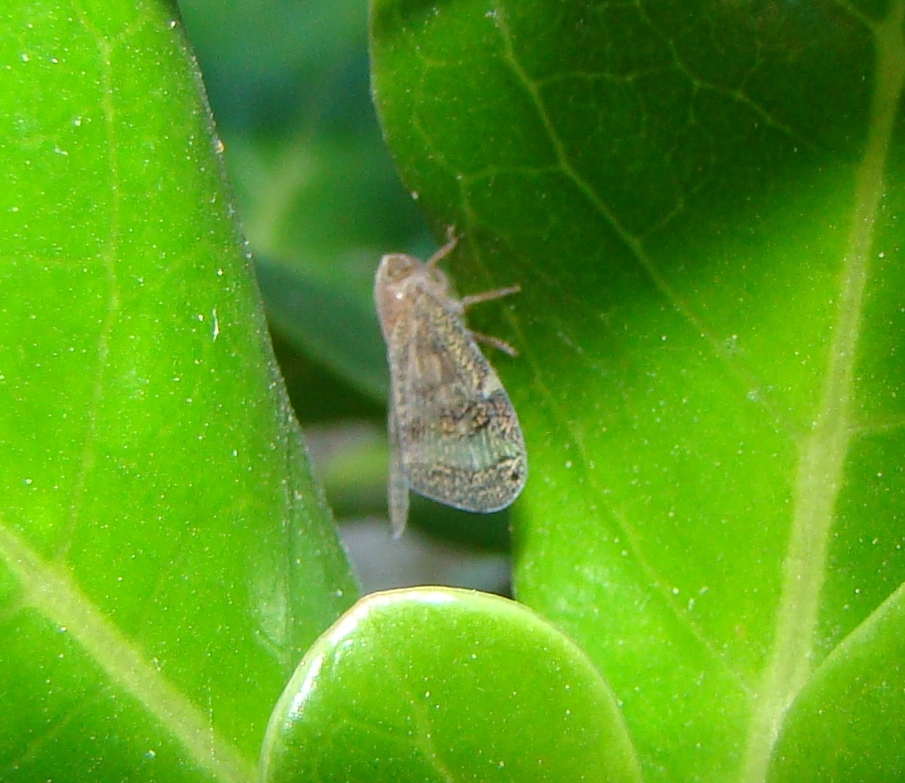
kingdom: Animalia
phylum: Arthropoda
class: Insecta
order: Hemiptera
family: Ricaniidae
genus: Scolypopa
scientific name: Scolypopa australis
